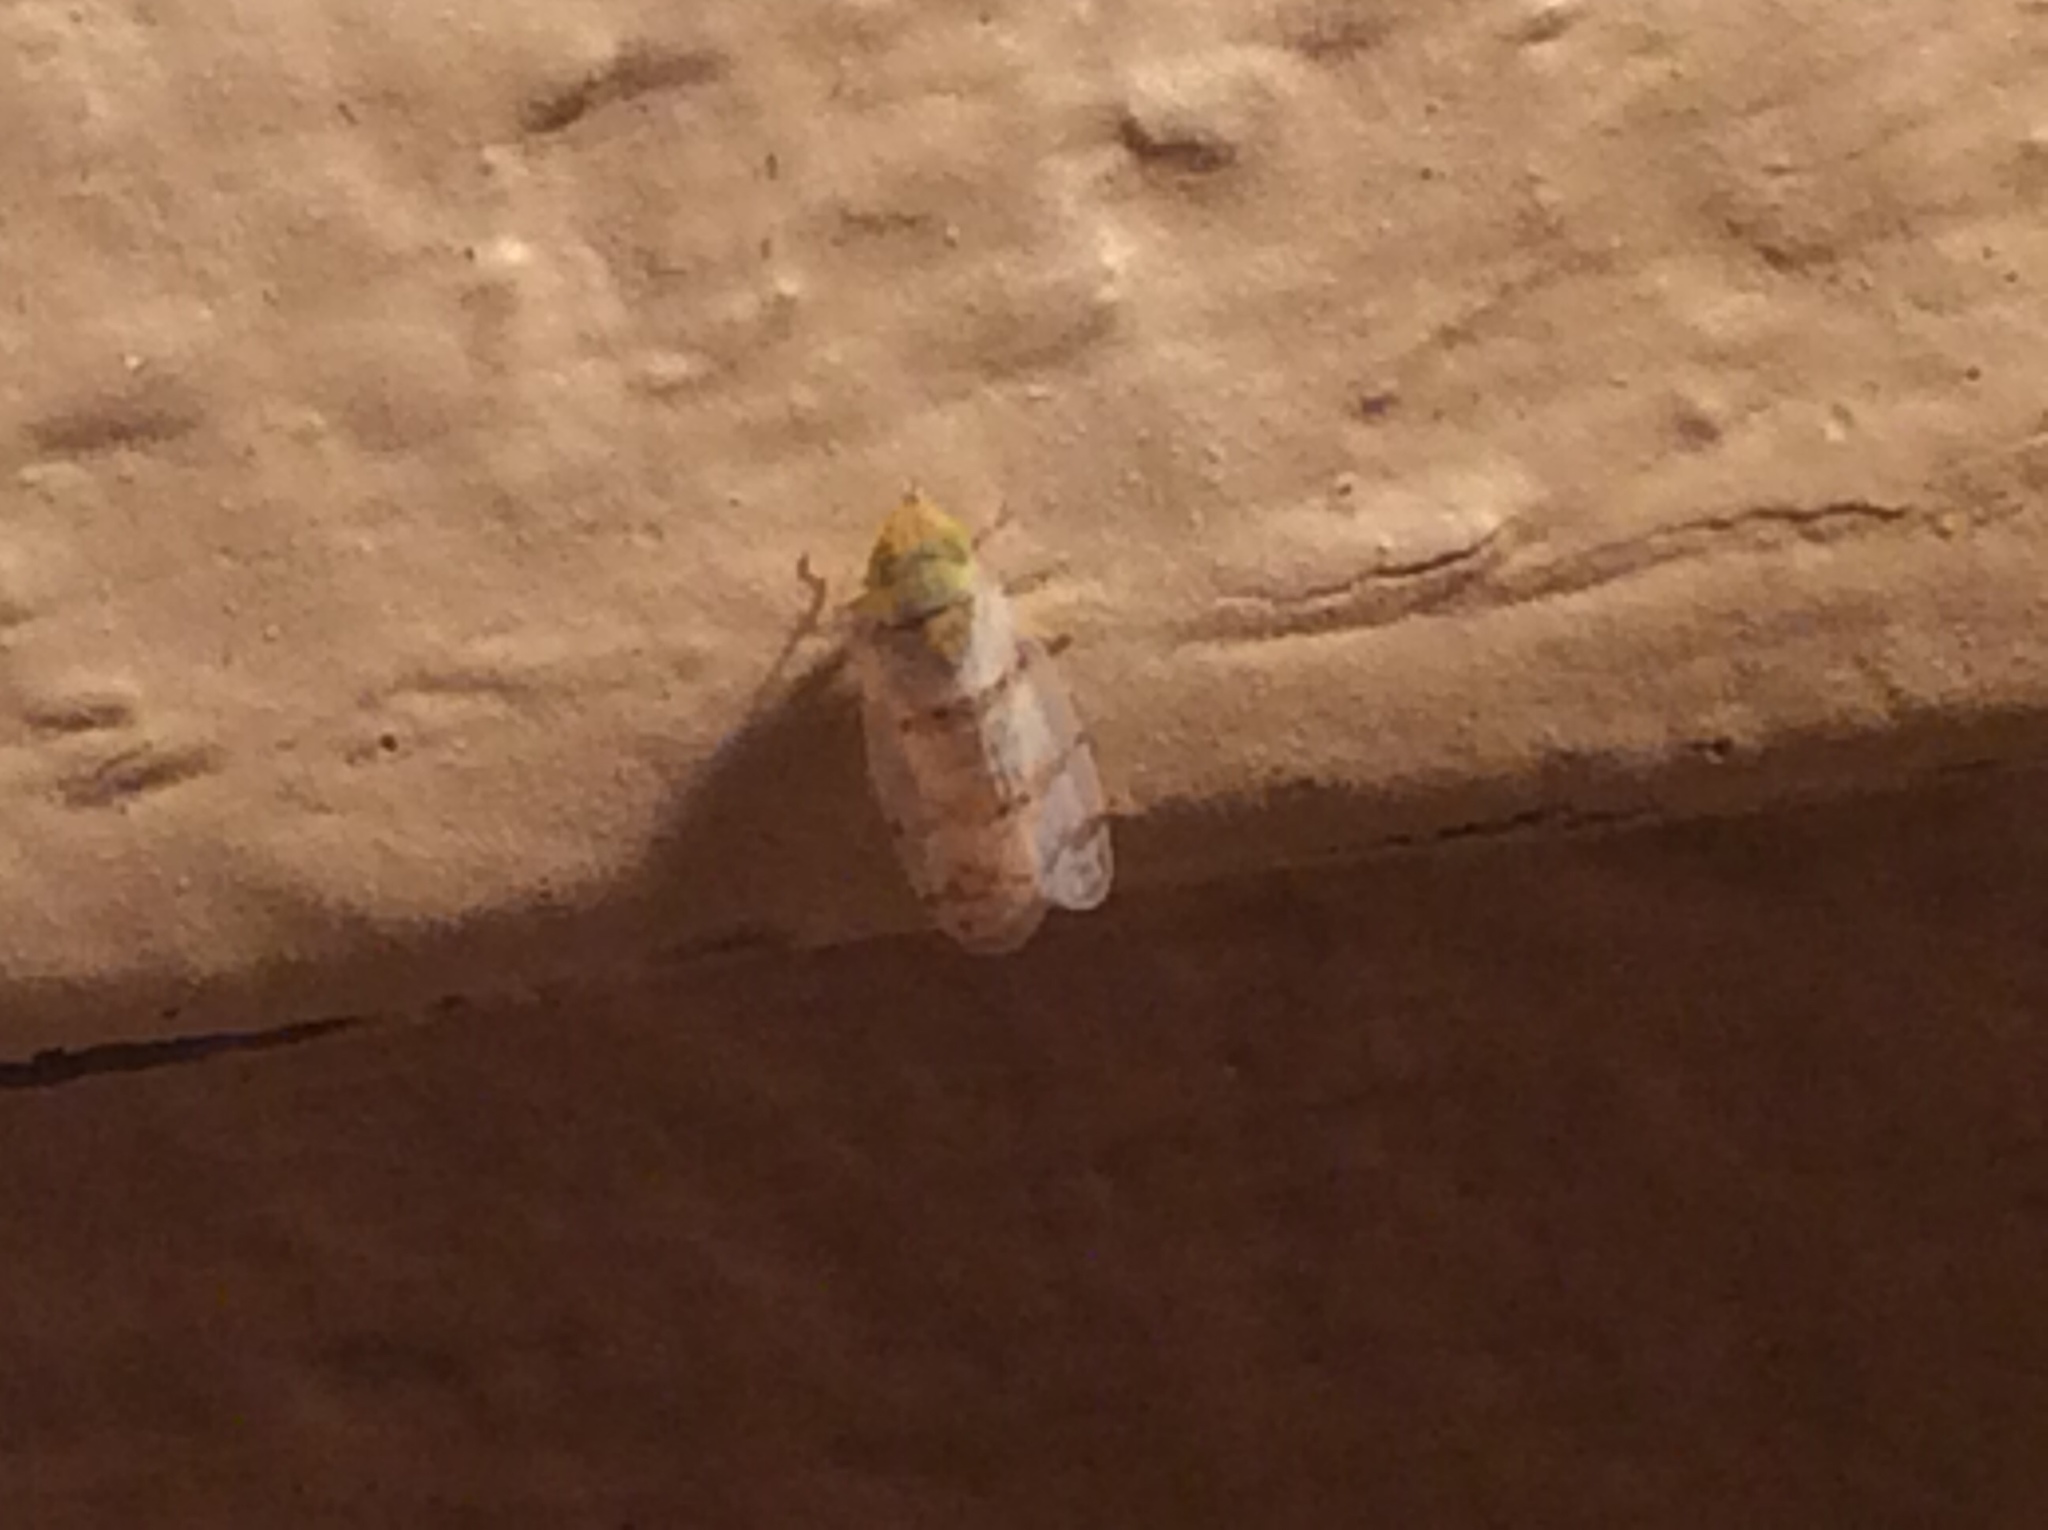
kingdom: Animalia
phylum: Arthropoda
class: Insecta
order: Hemiptera
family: Cicadellidae
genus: Japananus
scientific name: Japananus hyalinus
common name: The japanese maple leafhopper
